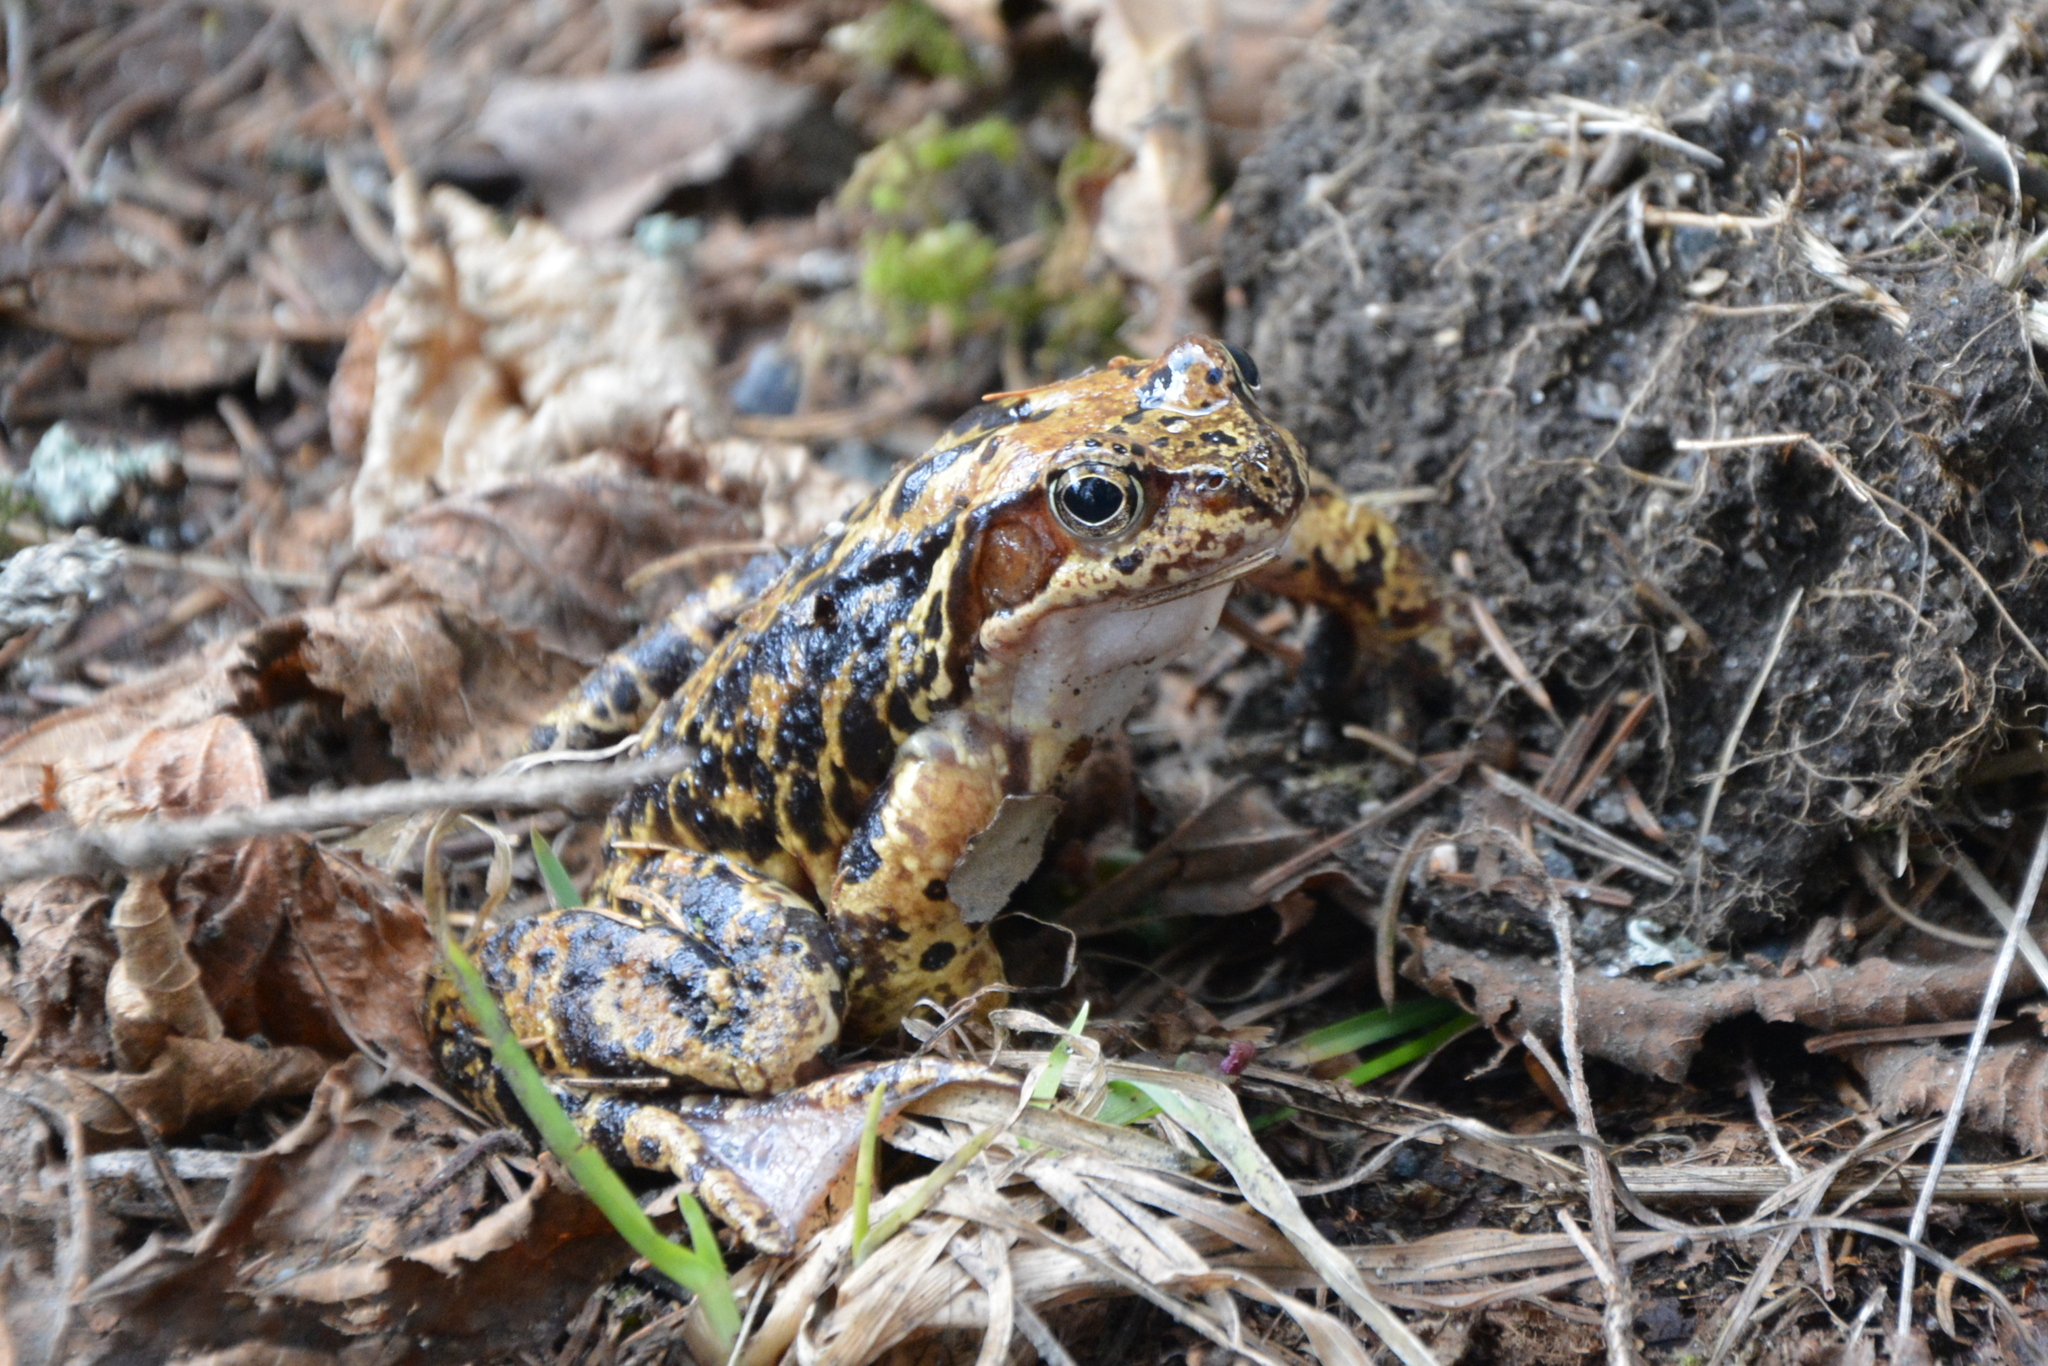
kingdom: Animalia
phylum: Chordata
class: Amphibia
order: Anura
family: Ranidae
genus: Rana
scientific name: Rana temporaria
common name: Common frog
